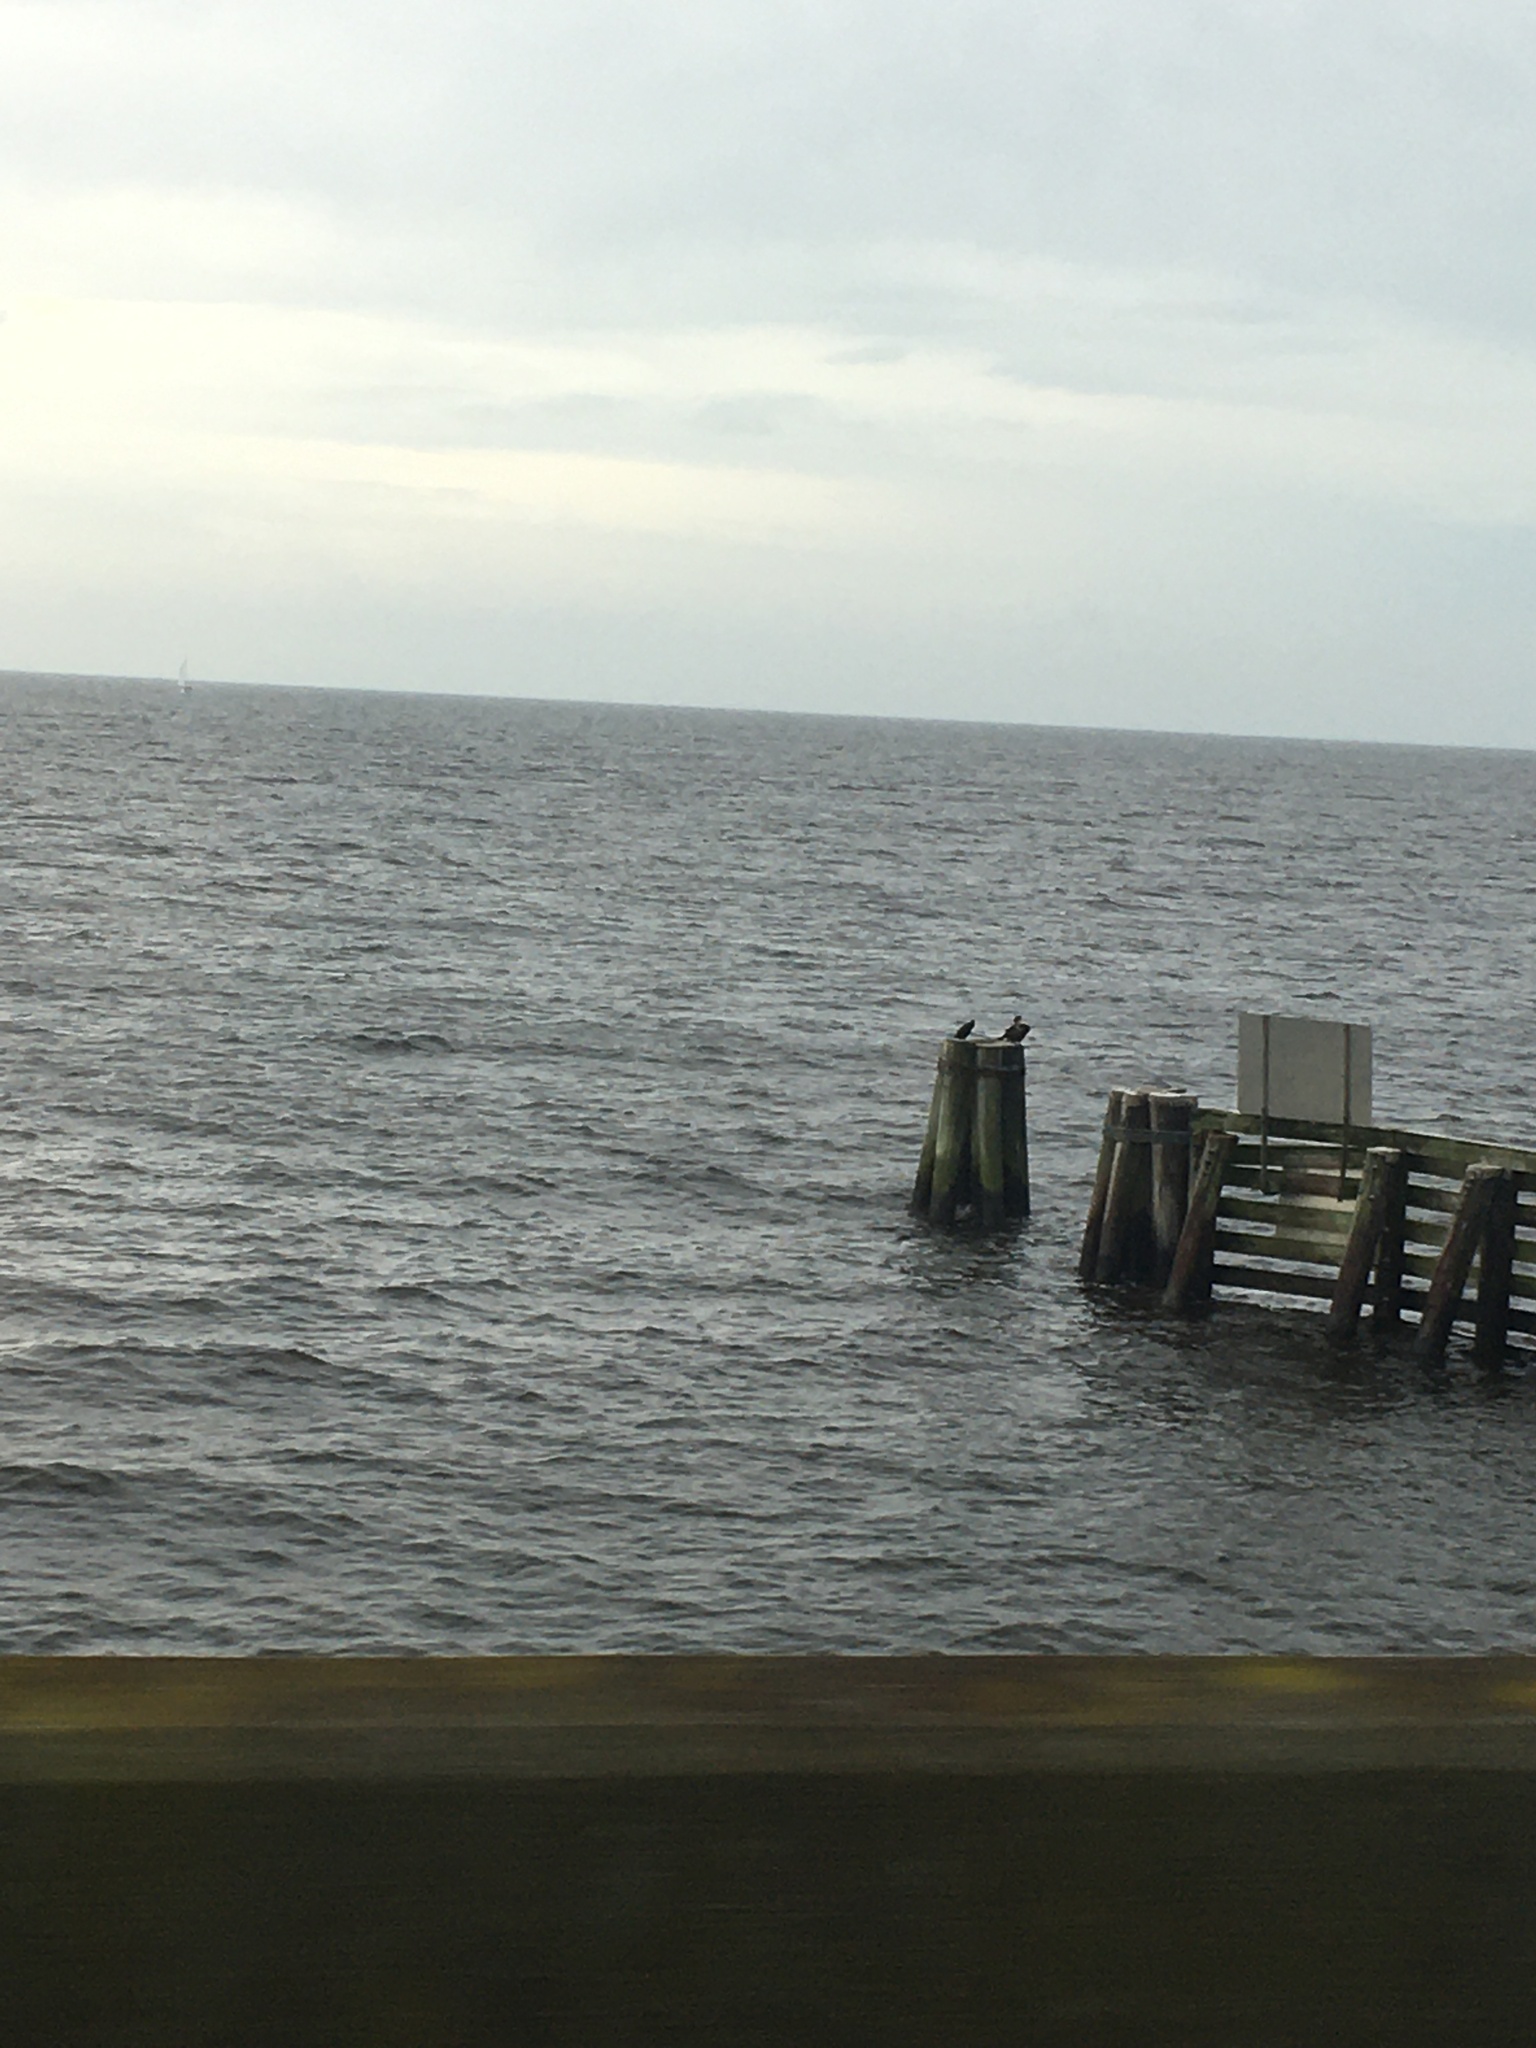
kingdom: Animalia
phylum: Chordata
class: Aves
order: Suliformes
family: Phalacrocoracidae
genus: Phalacrocorax
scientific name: Phalacrocorax auritus
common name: Double-crested cormorant
